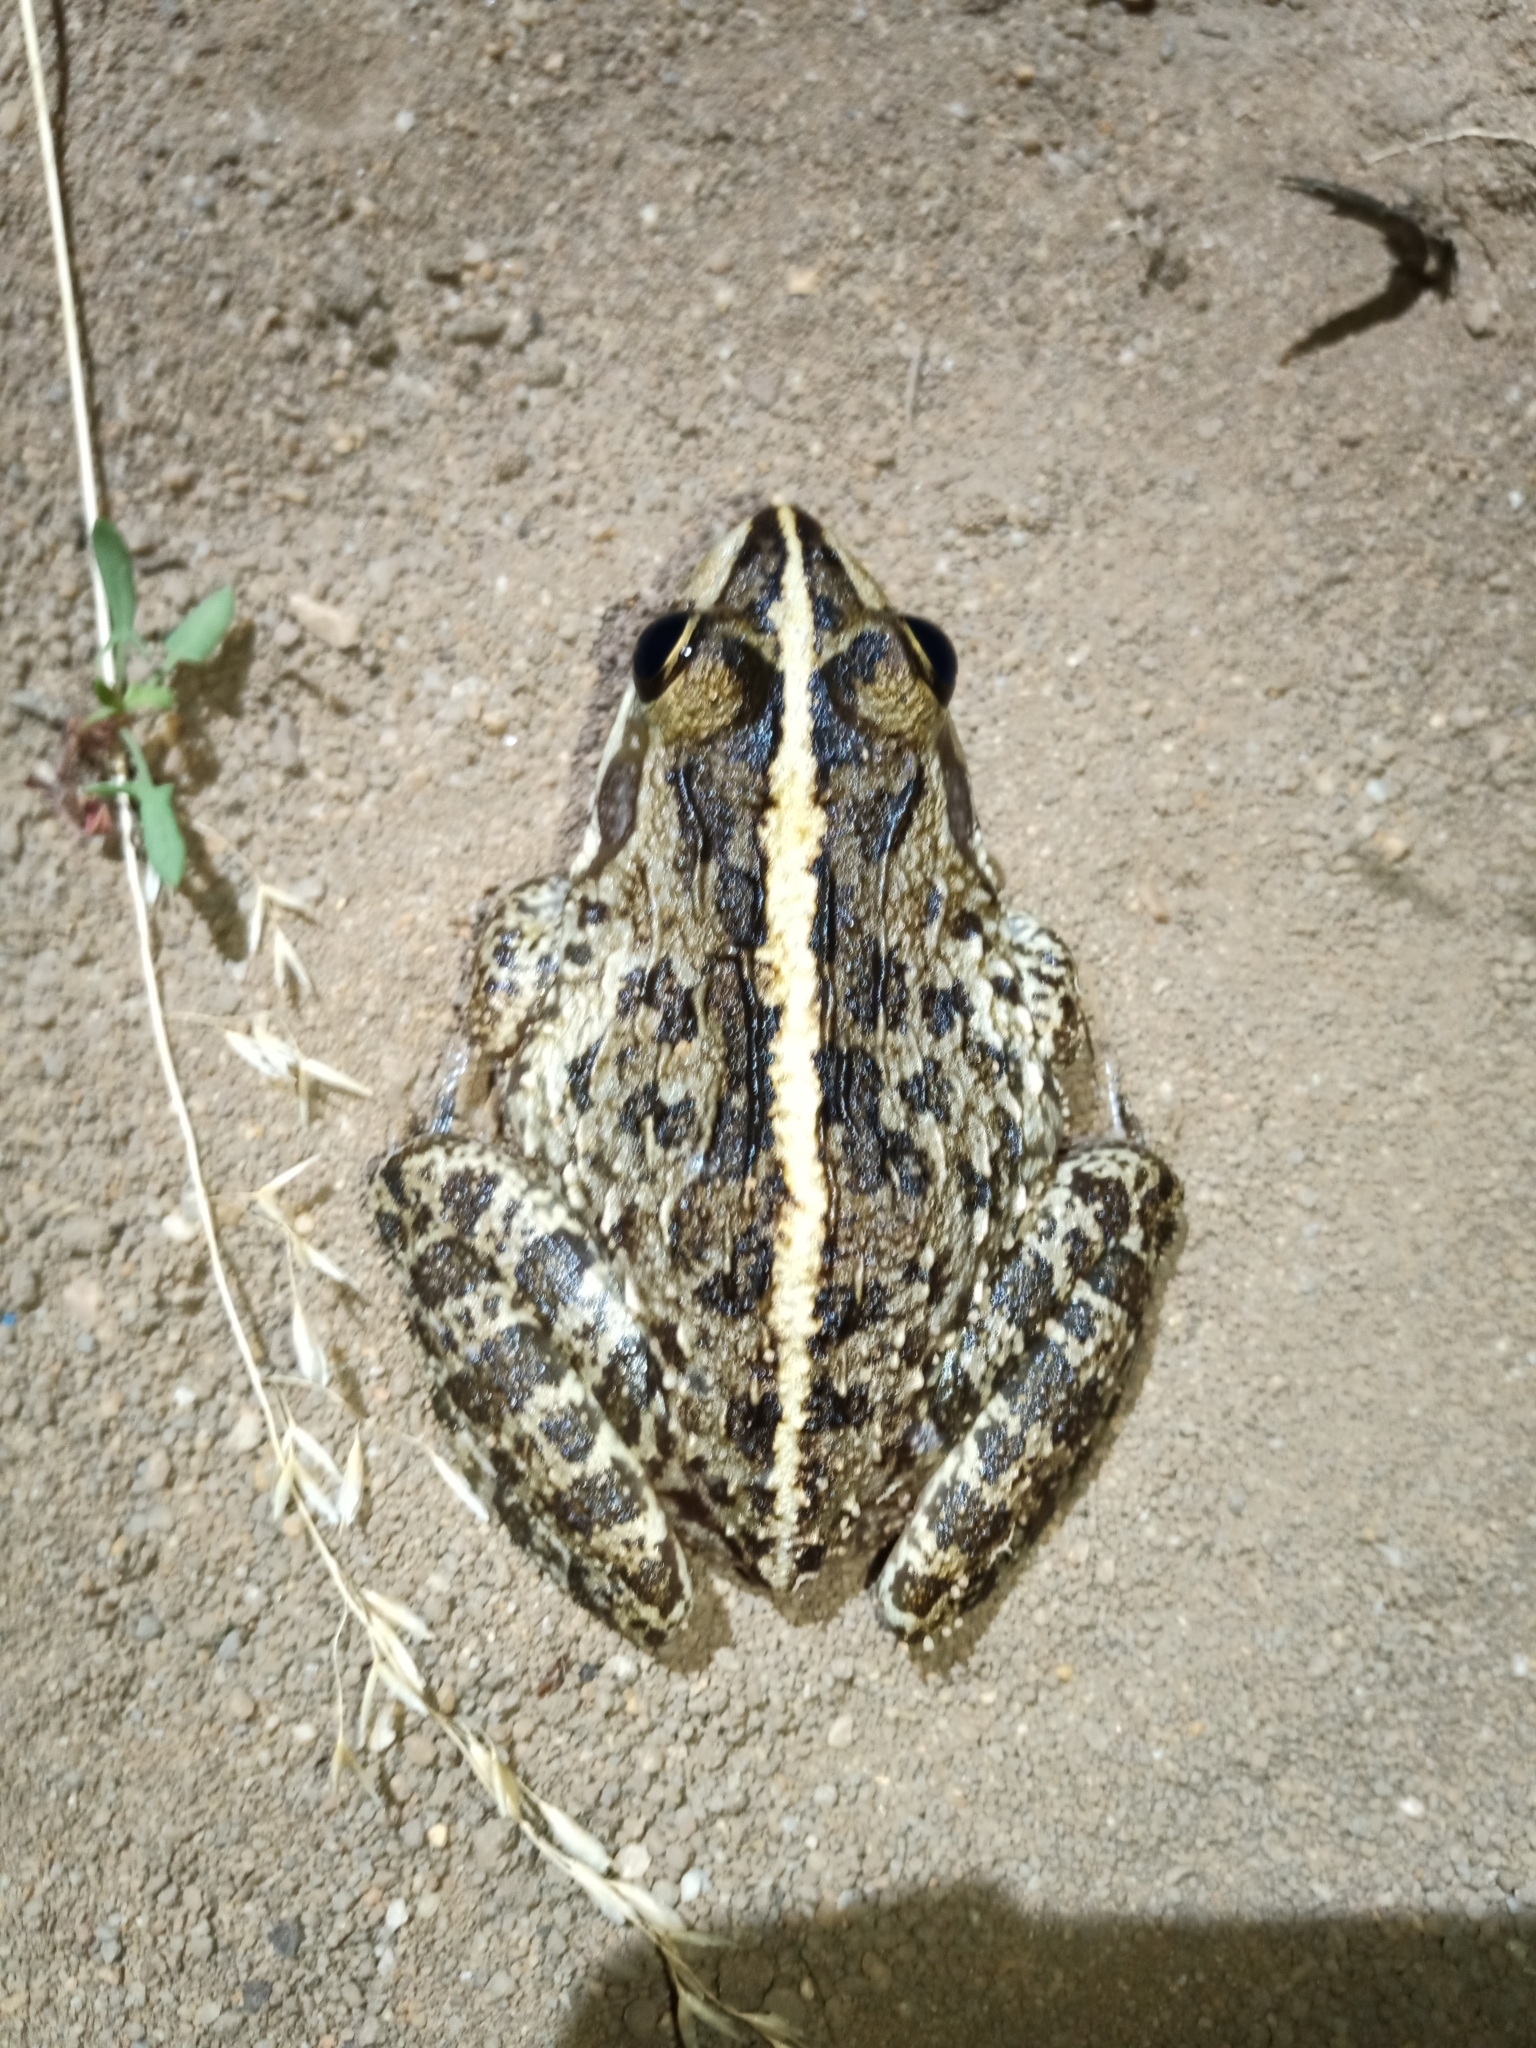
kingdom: Animalia
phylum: Chordata
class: Amphibia
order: Anura
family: Pyxicephalidae
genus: Amietia
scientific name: Amietia fuscigula
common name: Cape rana
